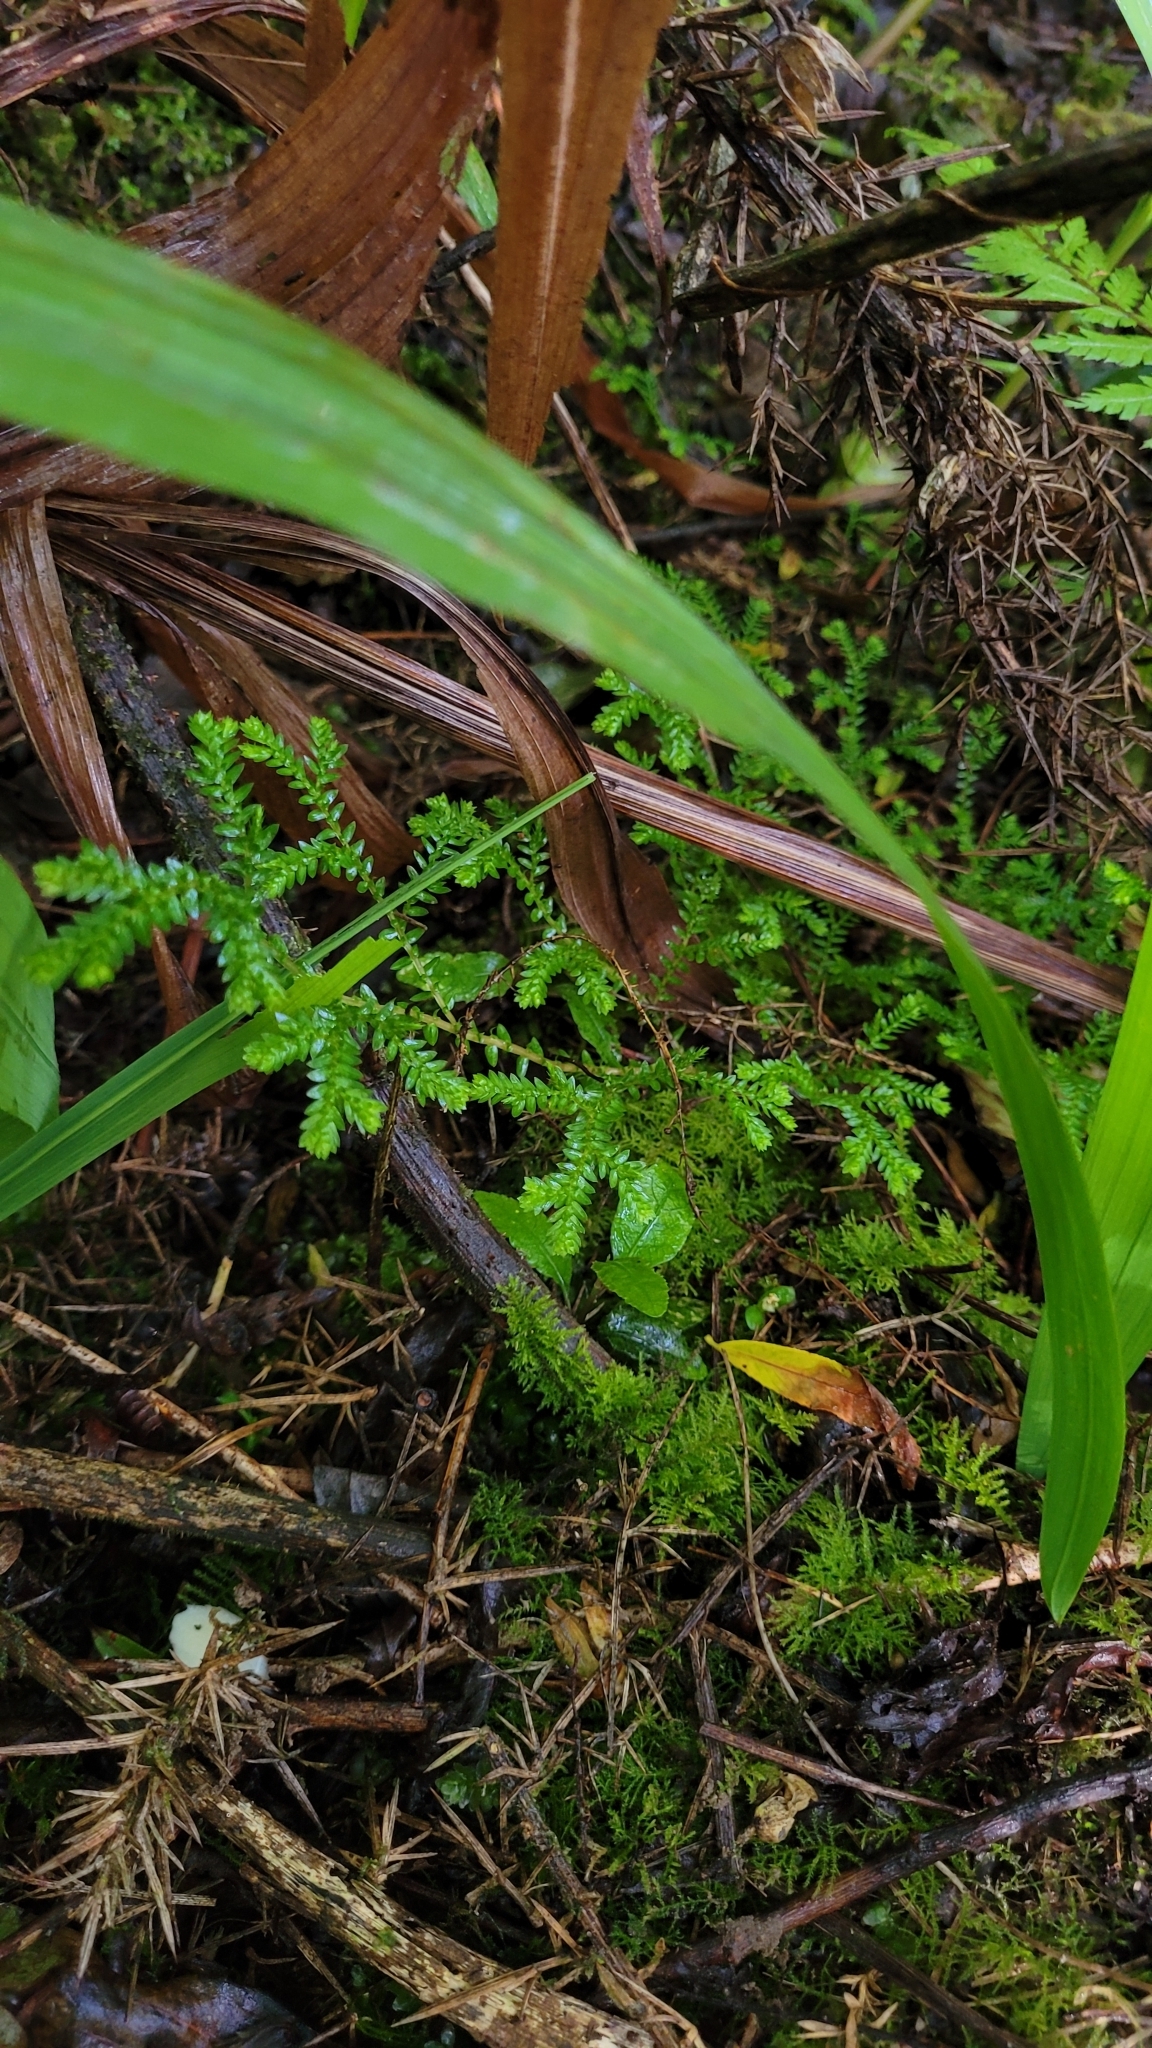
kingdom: Plantae
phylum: Tracheophyta
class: Lycopodiopsida
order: Selaginellales
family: Selaginellaceae
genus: Selaginella
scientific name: Selaginella kraussiana
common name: Krauss' spikemoss
